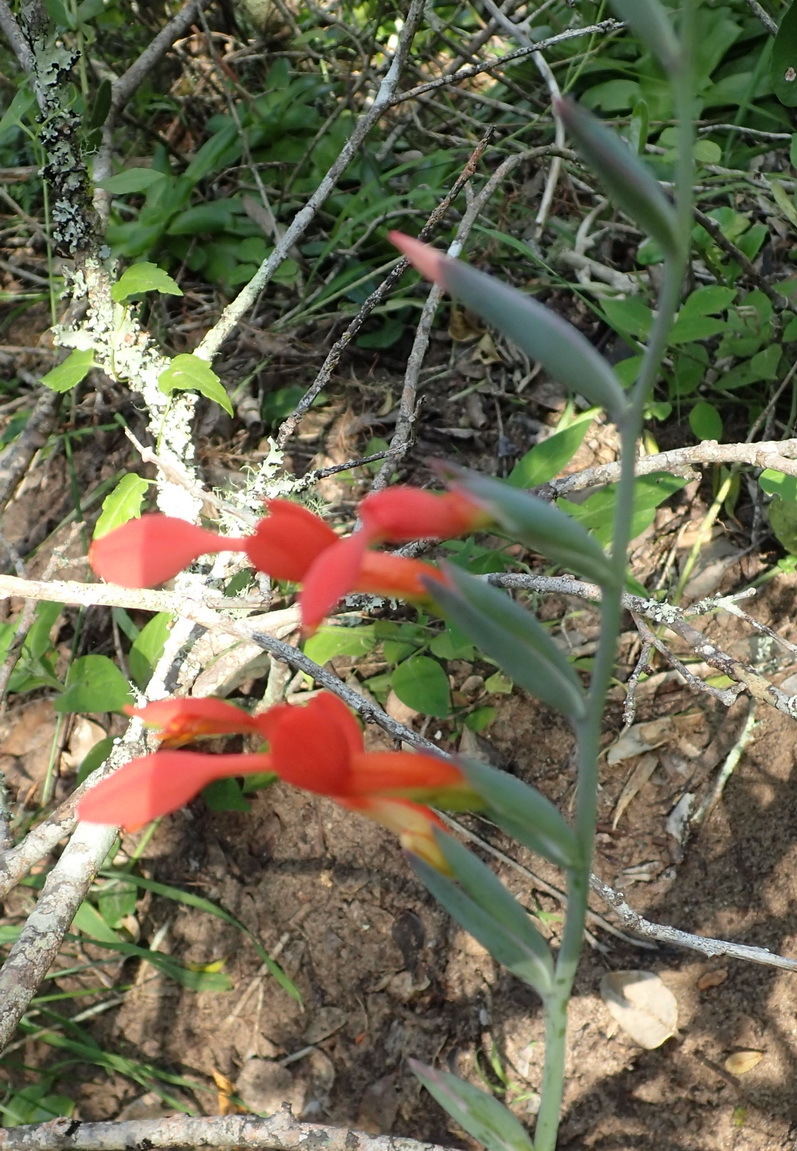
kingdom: Plantae
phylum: Tracheophyta
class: Liliopsida
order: Asparagales
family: Iridaceae
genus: Gladiolus
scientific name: Gladiolus cunonius
